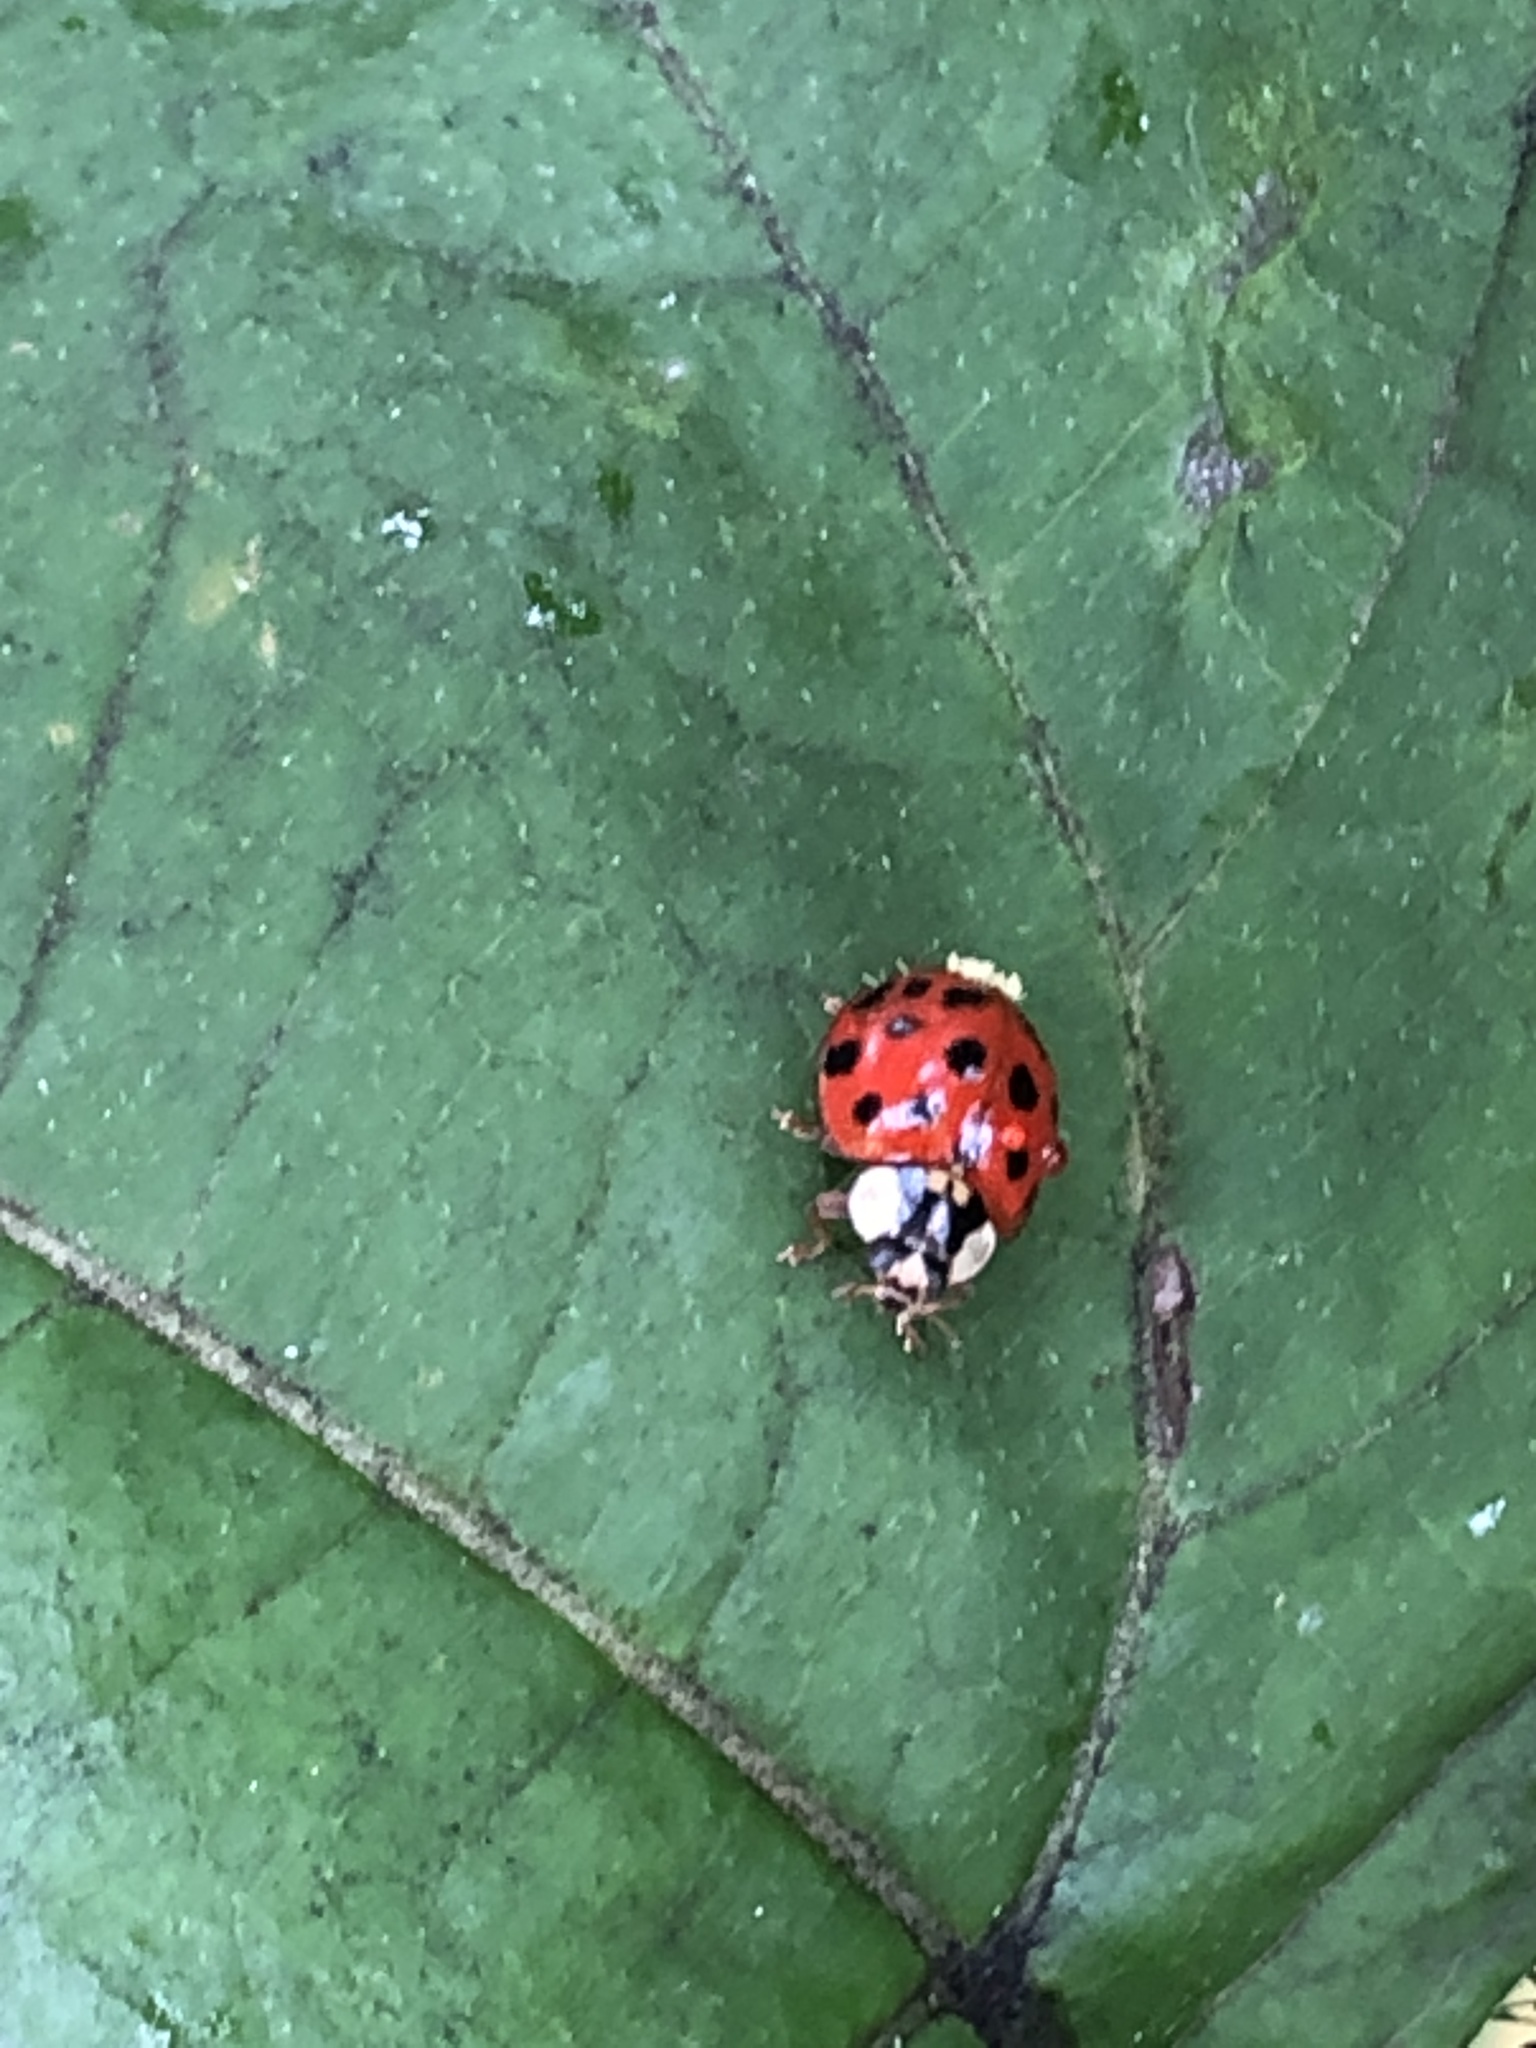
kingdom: Animalia
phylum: Arthropoda
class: Insecta
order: Coleoptera
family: Coccinellidae
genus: Harmonia
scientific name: Harmonia axyridis
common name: Harlequin ladybird
